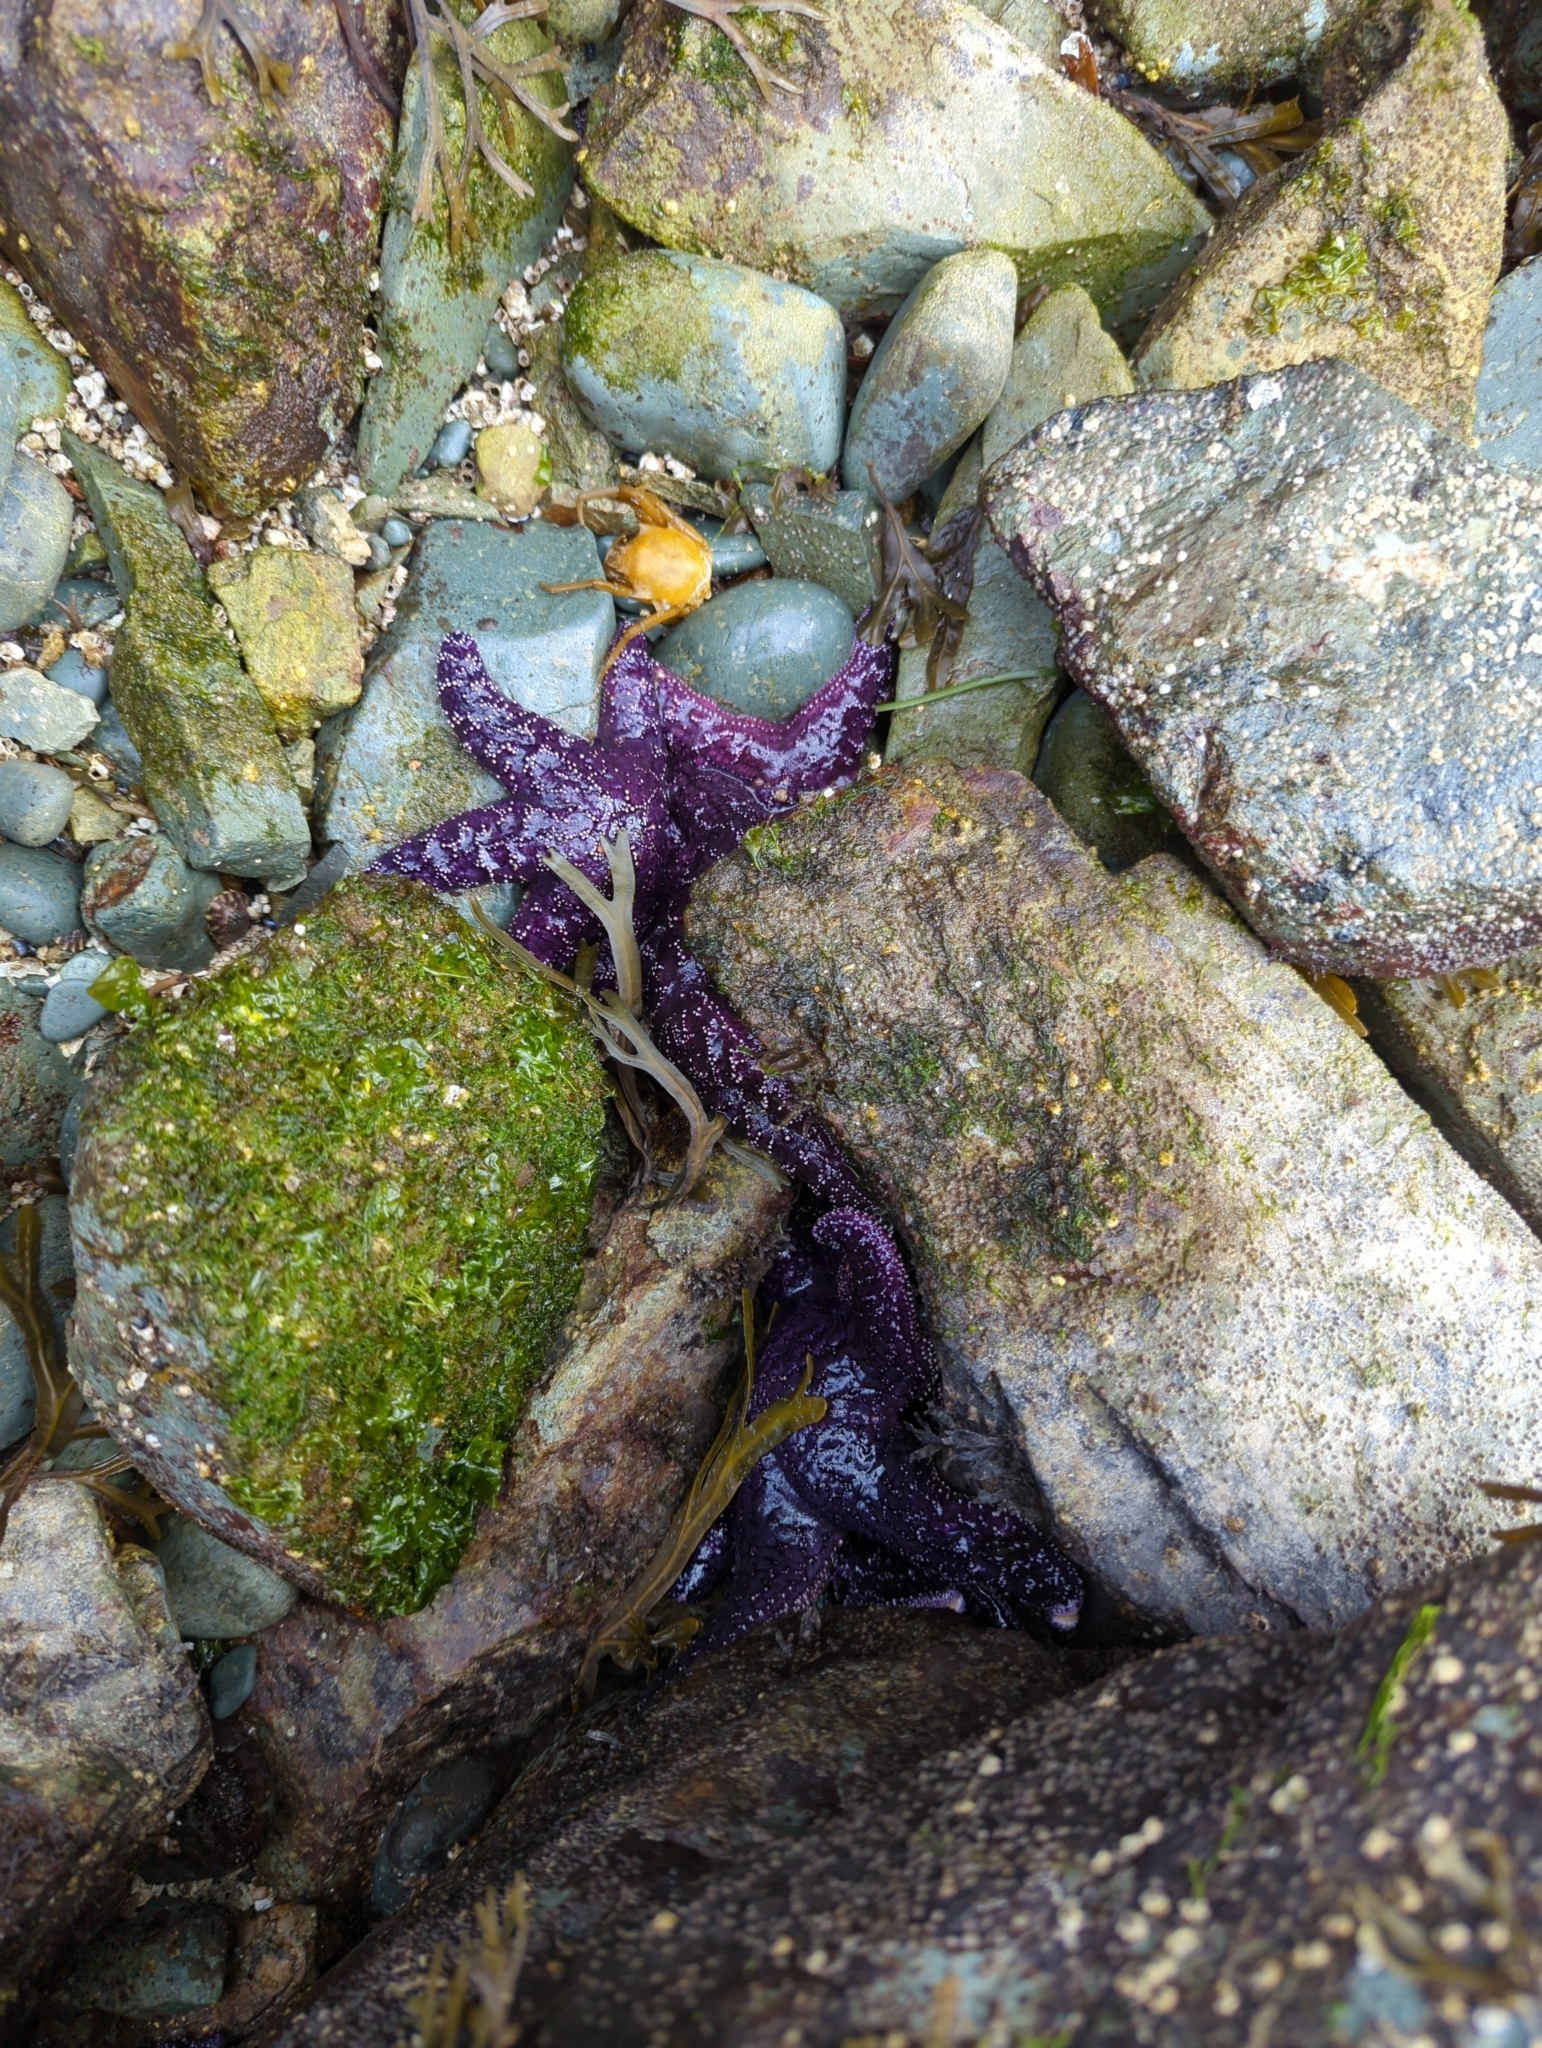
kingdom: Animalia
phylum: Echinodermata
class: Asteroidea
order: Forcipulatida
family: Asteriidae
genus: Pisaster
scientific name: Pisaster ochraceus
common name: Ochre stars
